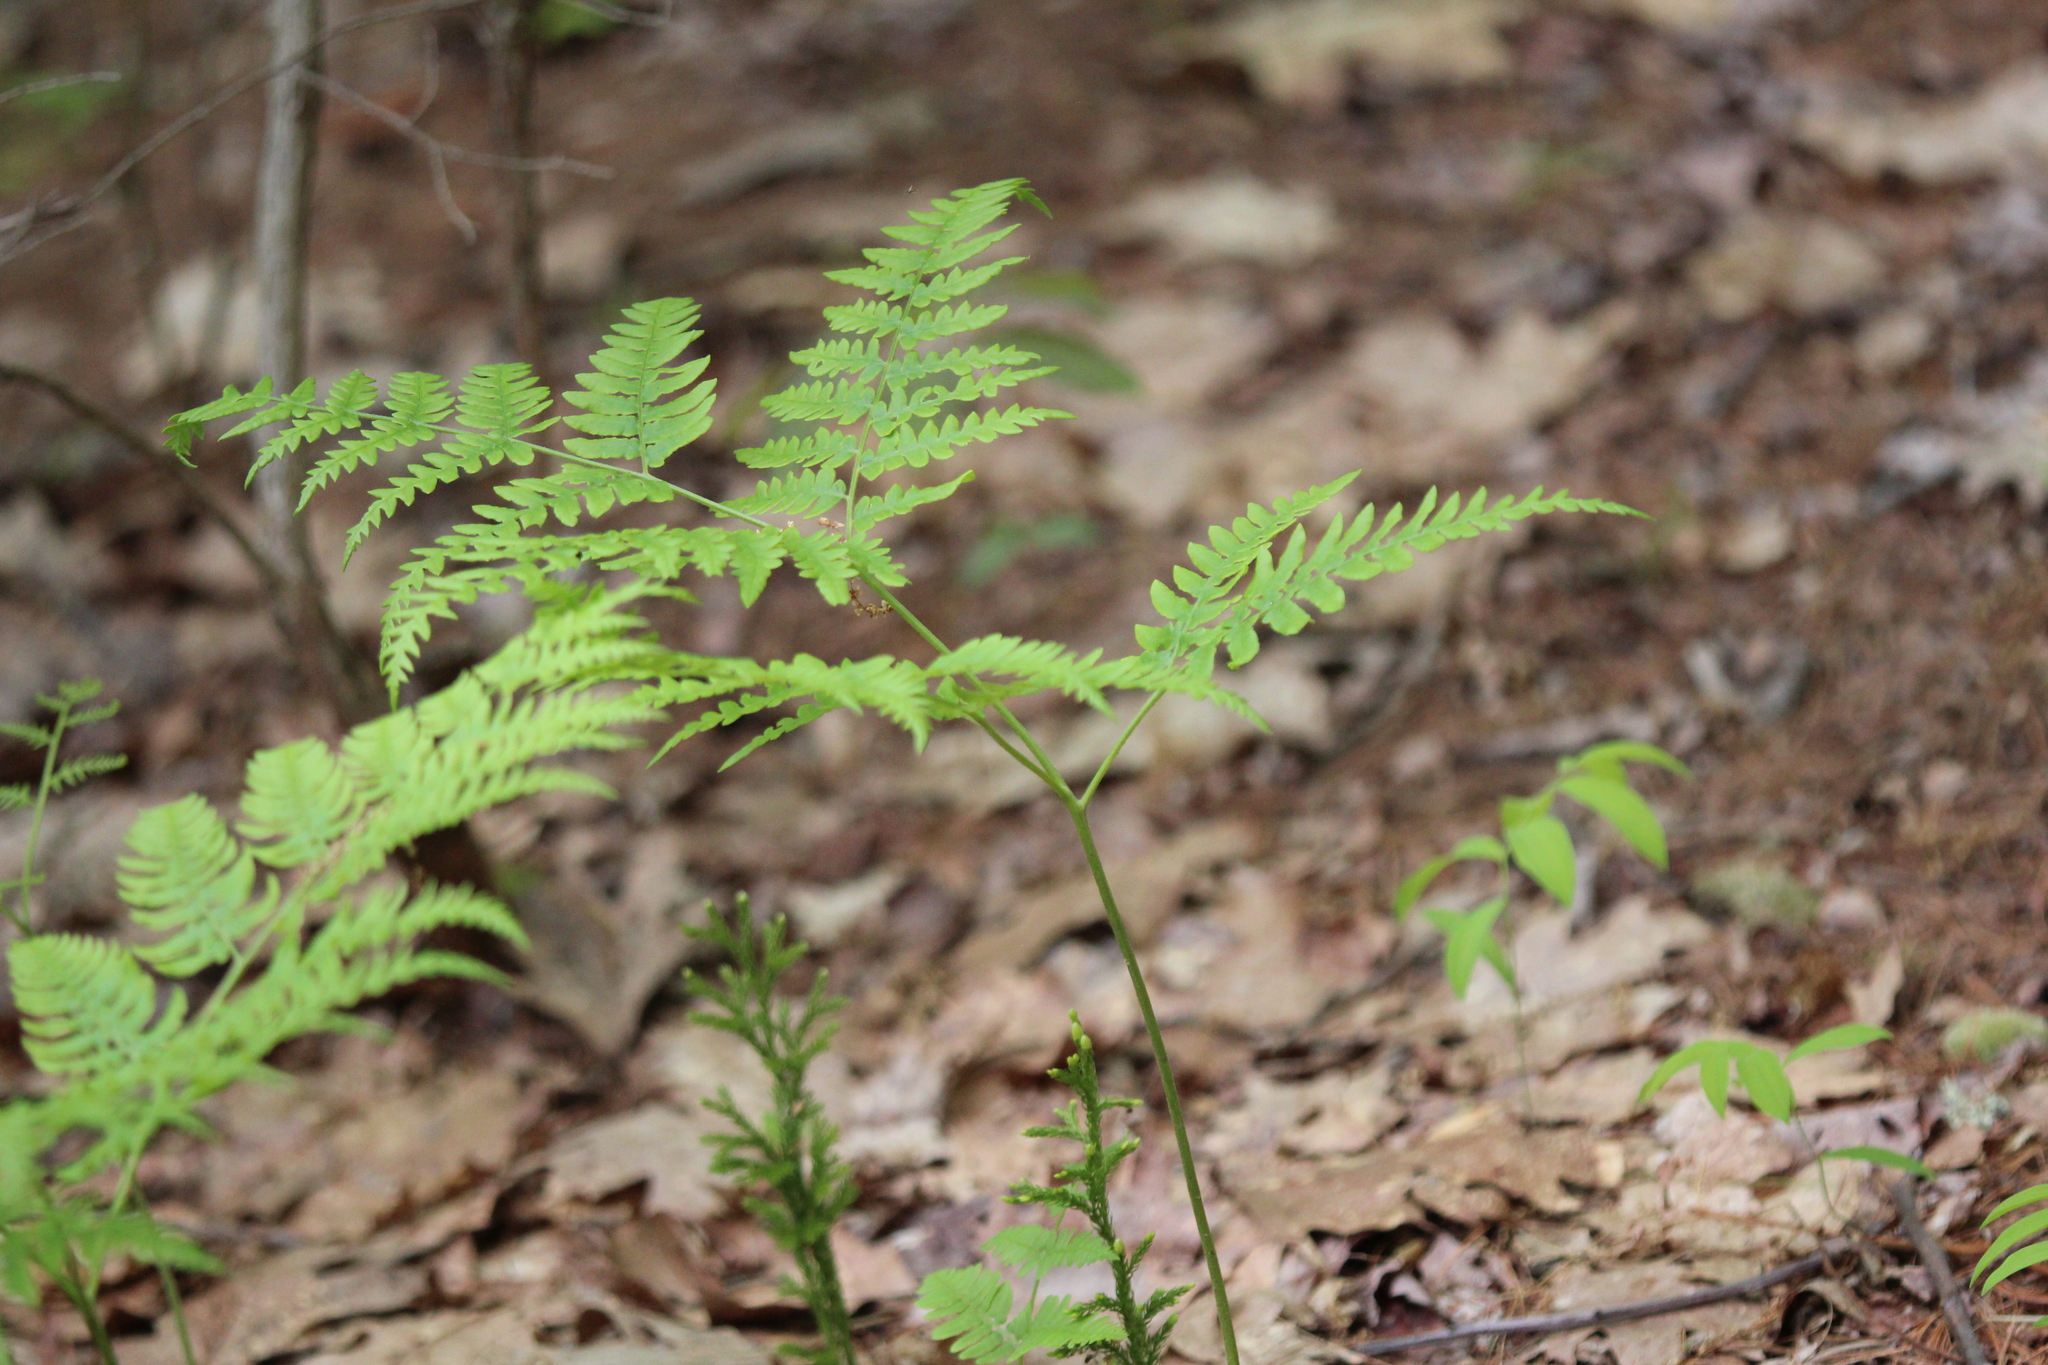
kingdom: Plantae
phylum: Tracheophyta
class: Polypodiopsida
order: Polypodiales
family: Dennstaedtiaceae
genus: Pteridium
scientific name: Pteridium aquilinum
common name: Bracken
